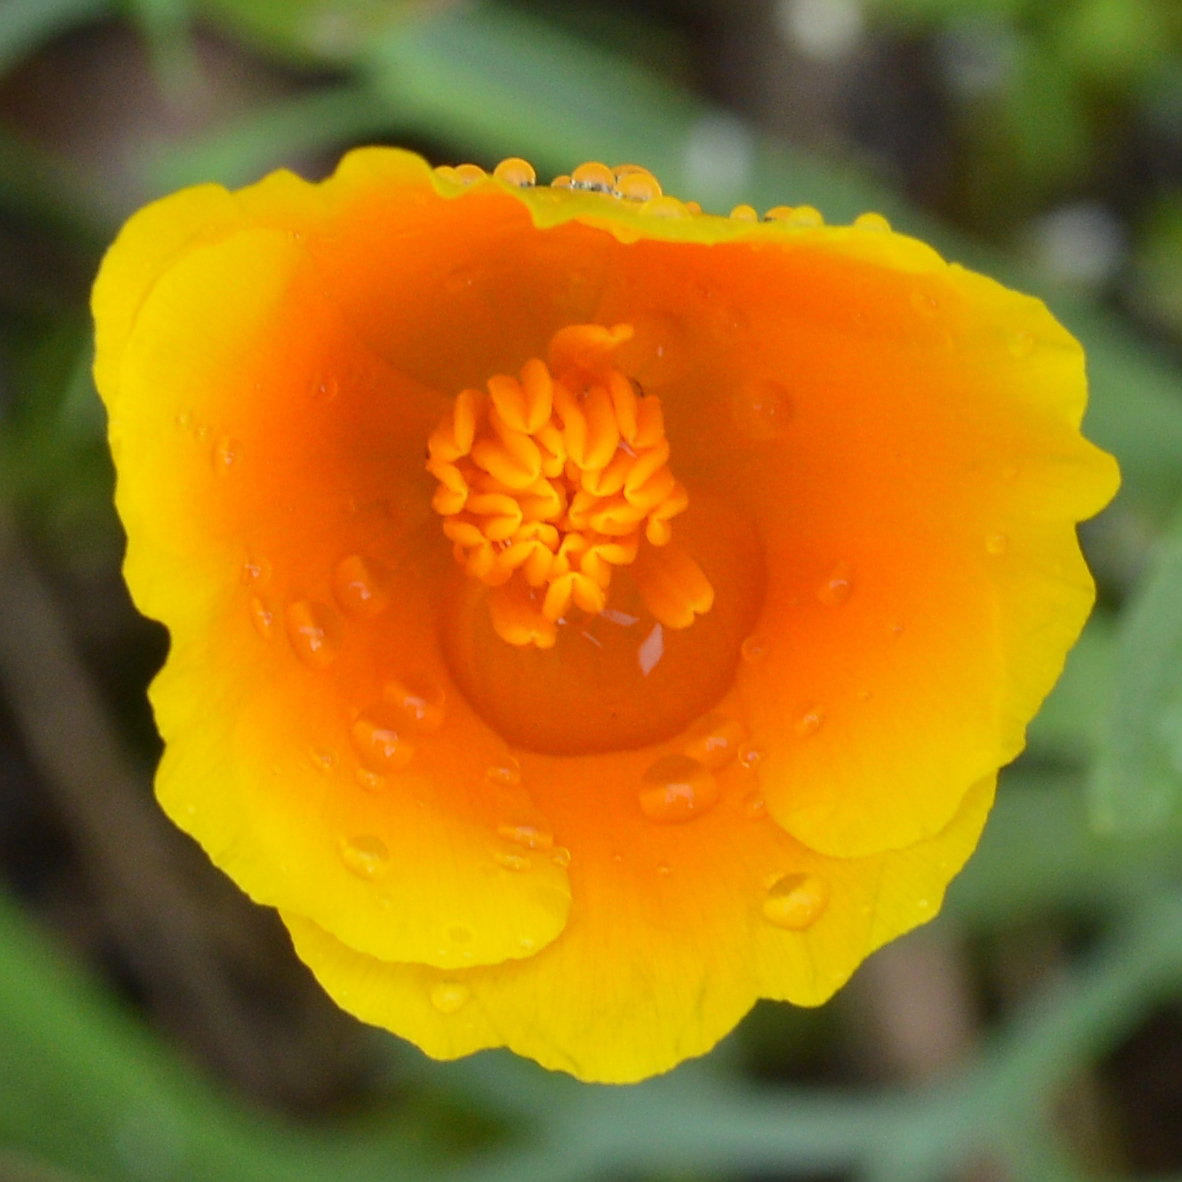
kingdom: Plantae
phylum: Tracheophyta
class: Magnoliopsida
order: Ranunculales
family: Papaveraceae
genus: Eschscholzia
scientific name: Eschscholzia californica
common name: California poppy
